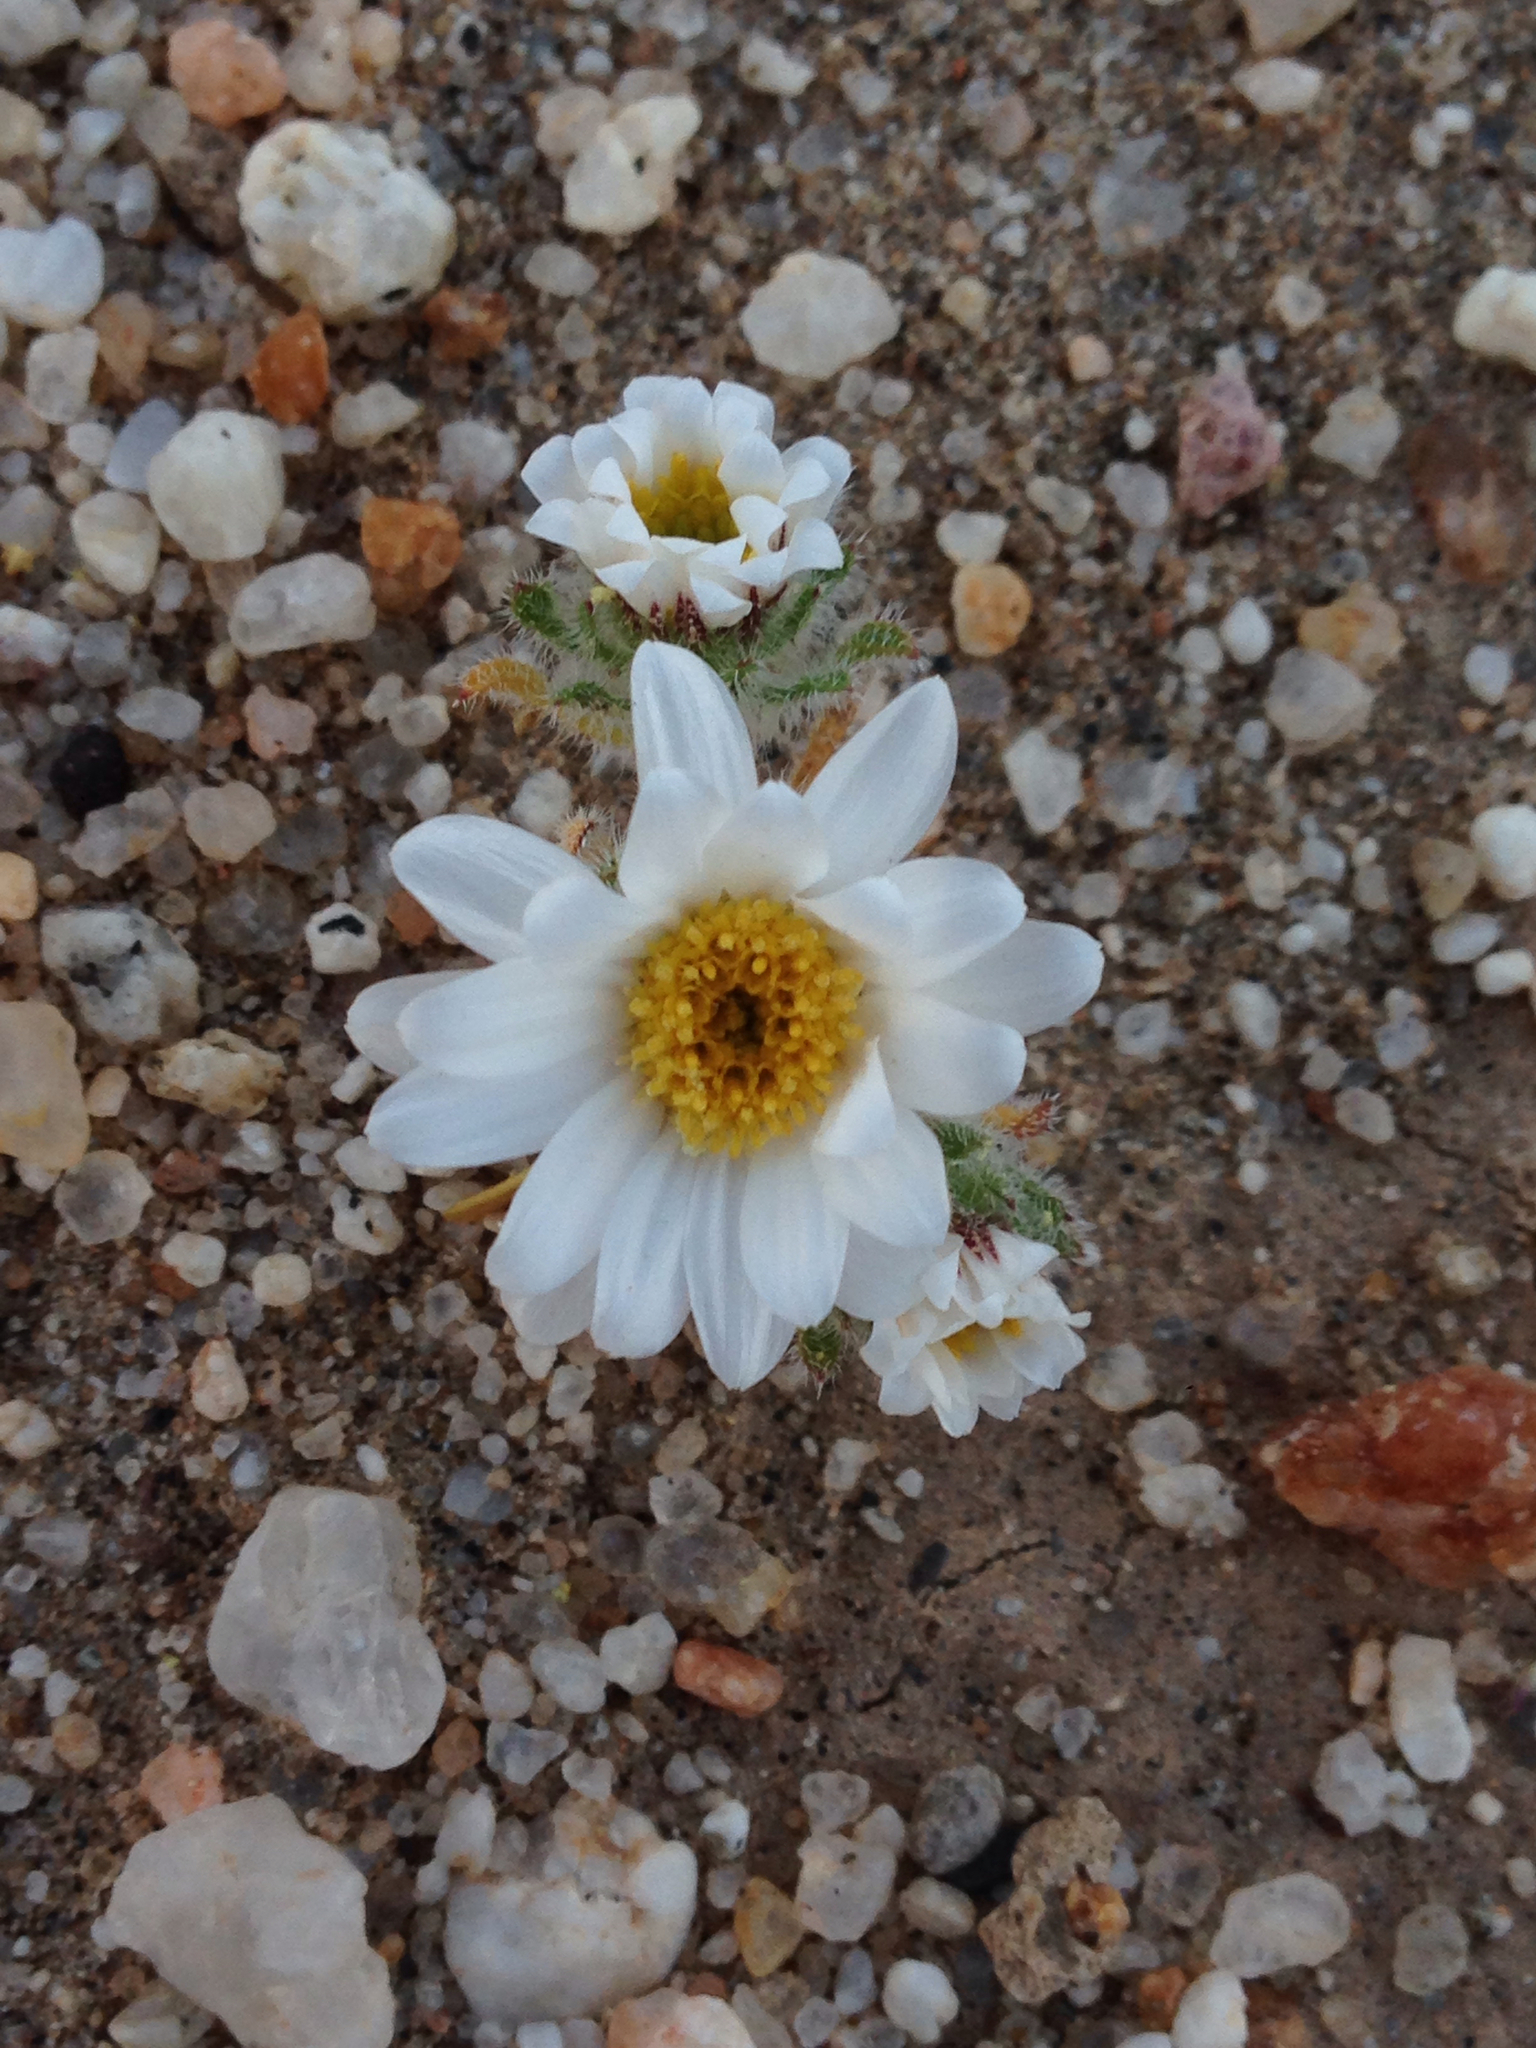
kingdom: Plantae
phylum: Tracheophyta
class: Magnoliopsida
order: Asterales
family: Asteraceae
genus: Monoptilon
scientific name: Monoptilon bellioides
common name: Bristly desertstar
